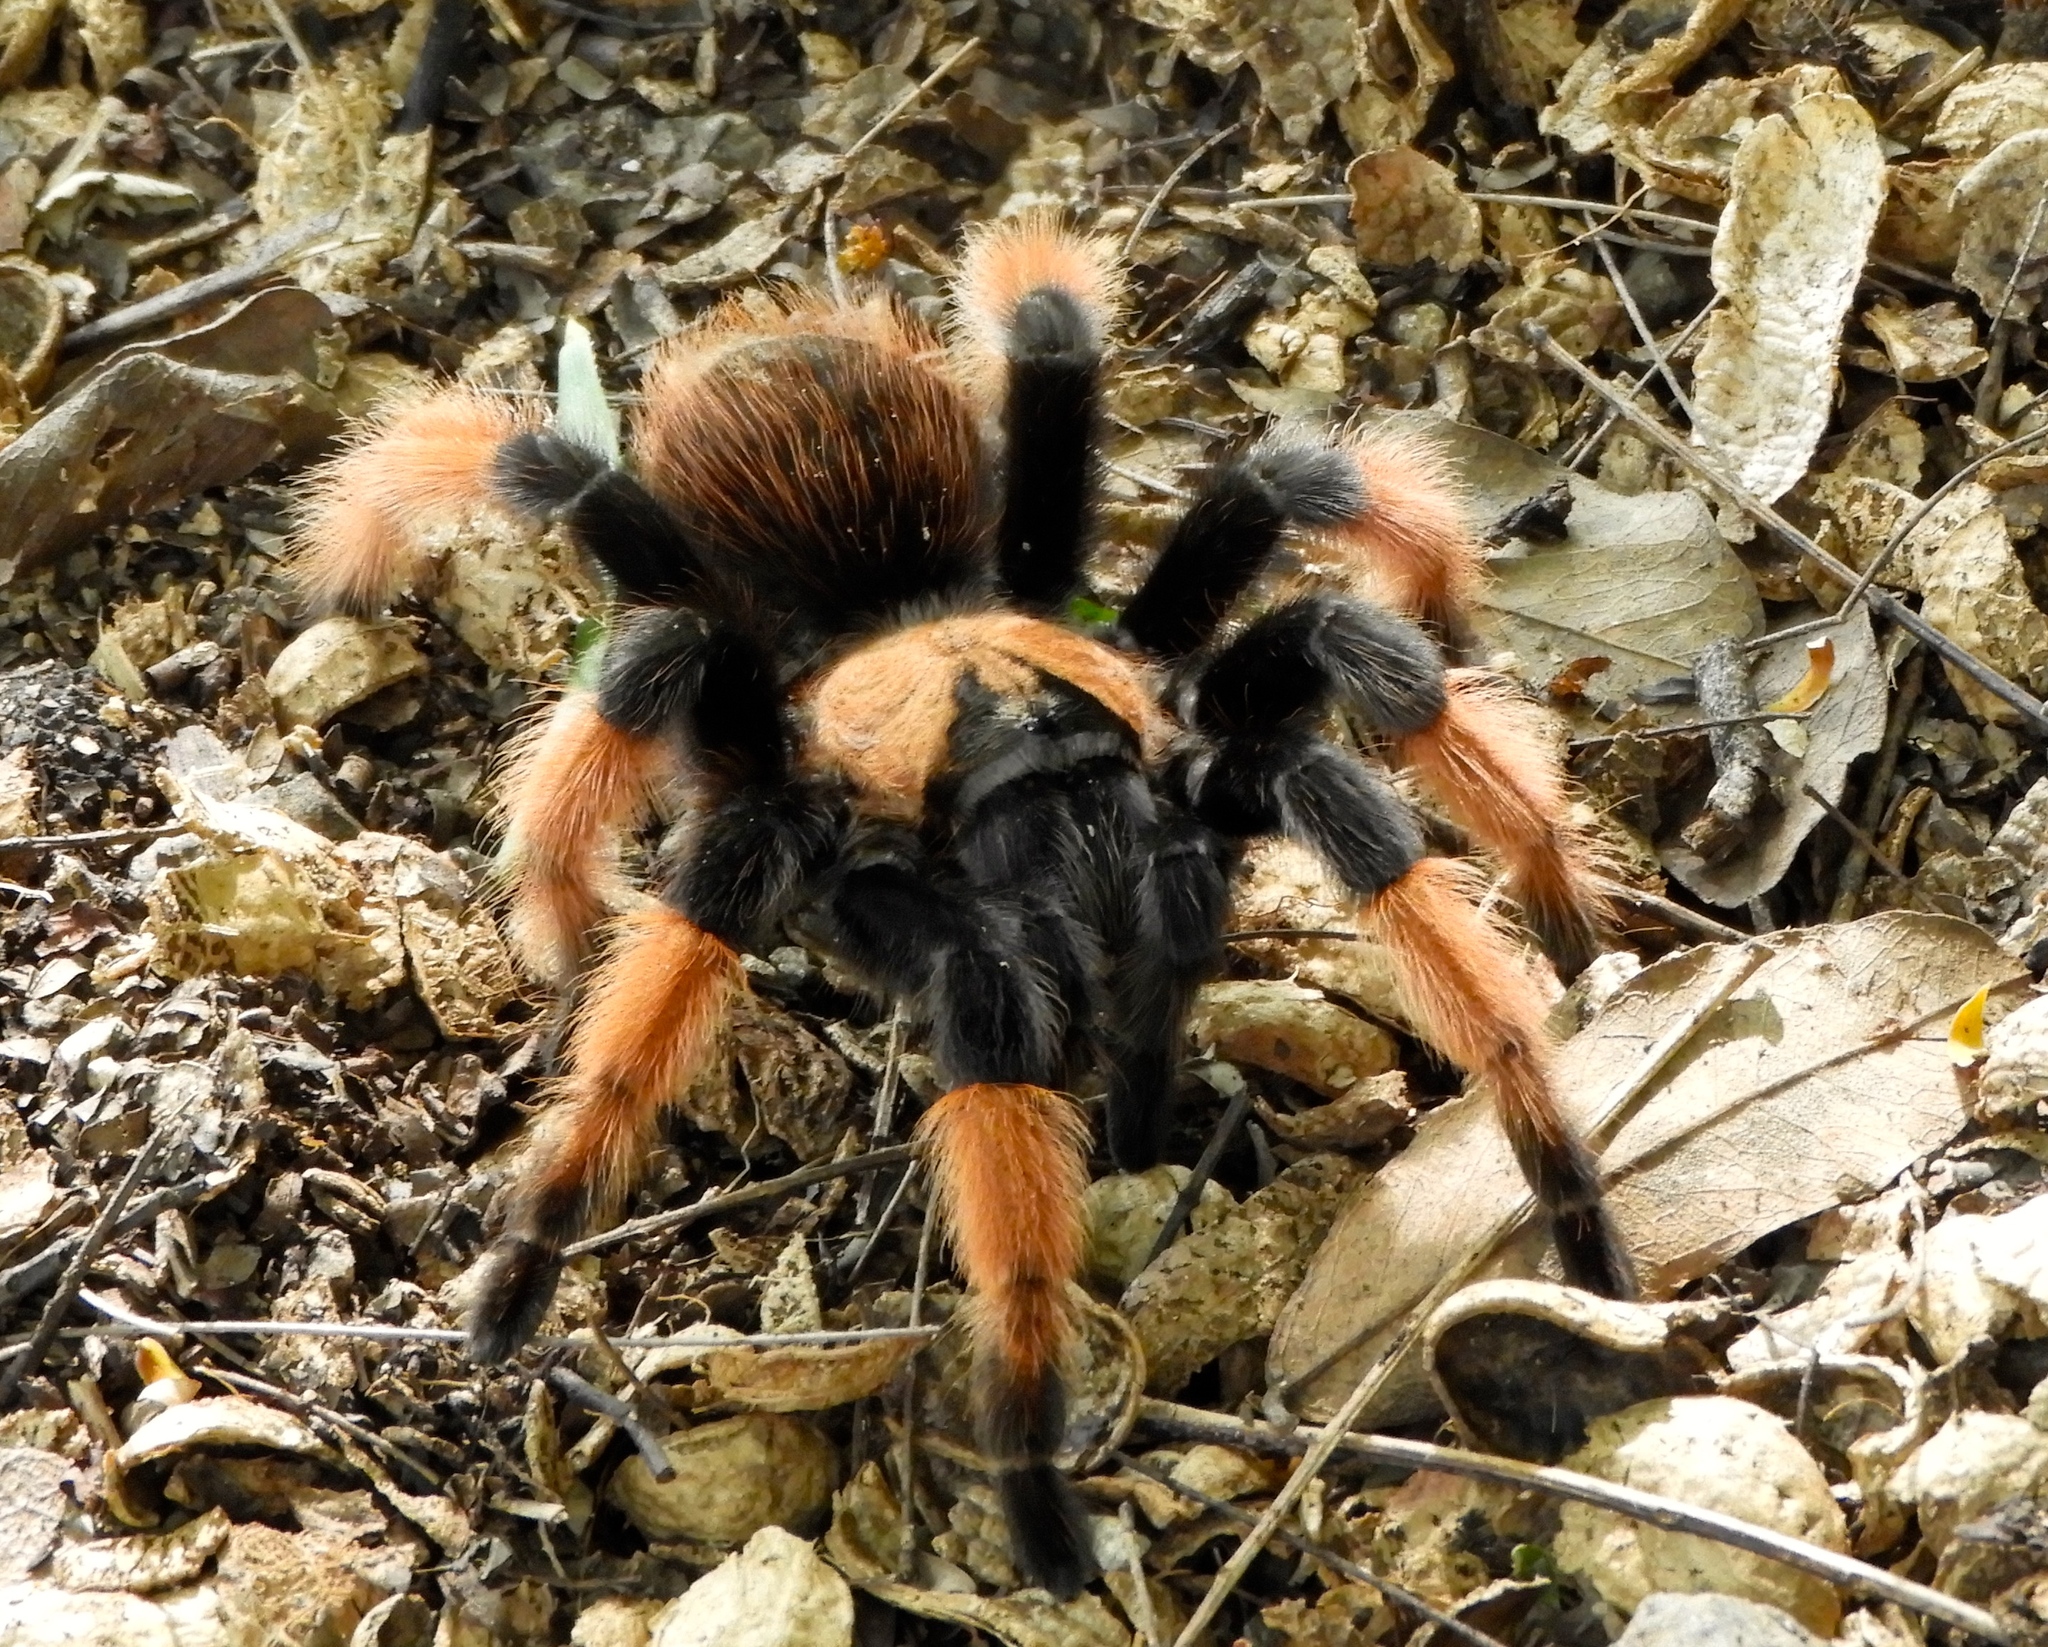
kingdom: Animalia
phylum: Arthropoda
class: Arachnida
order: Araneae
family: Theraphosidae
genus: Brachypelma
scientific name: Brachypelma emilia
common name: Mexican redleg
